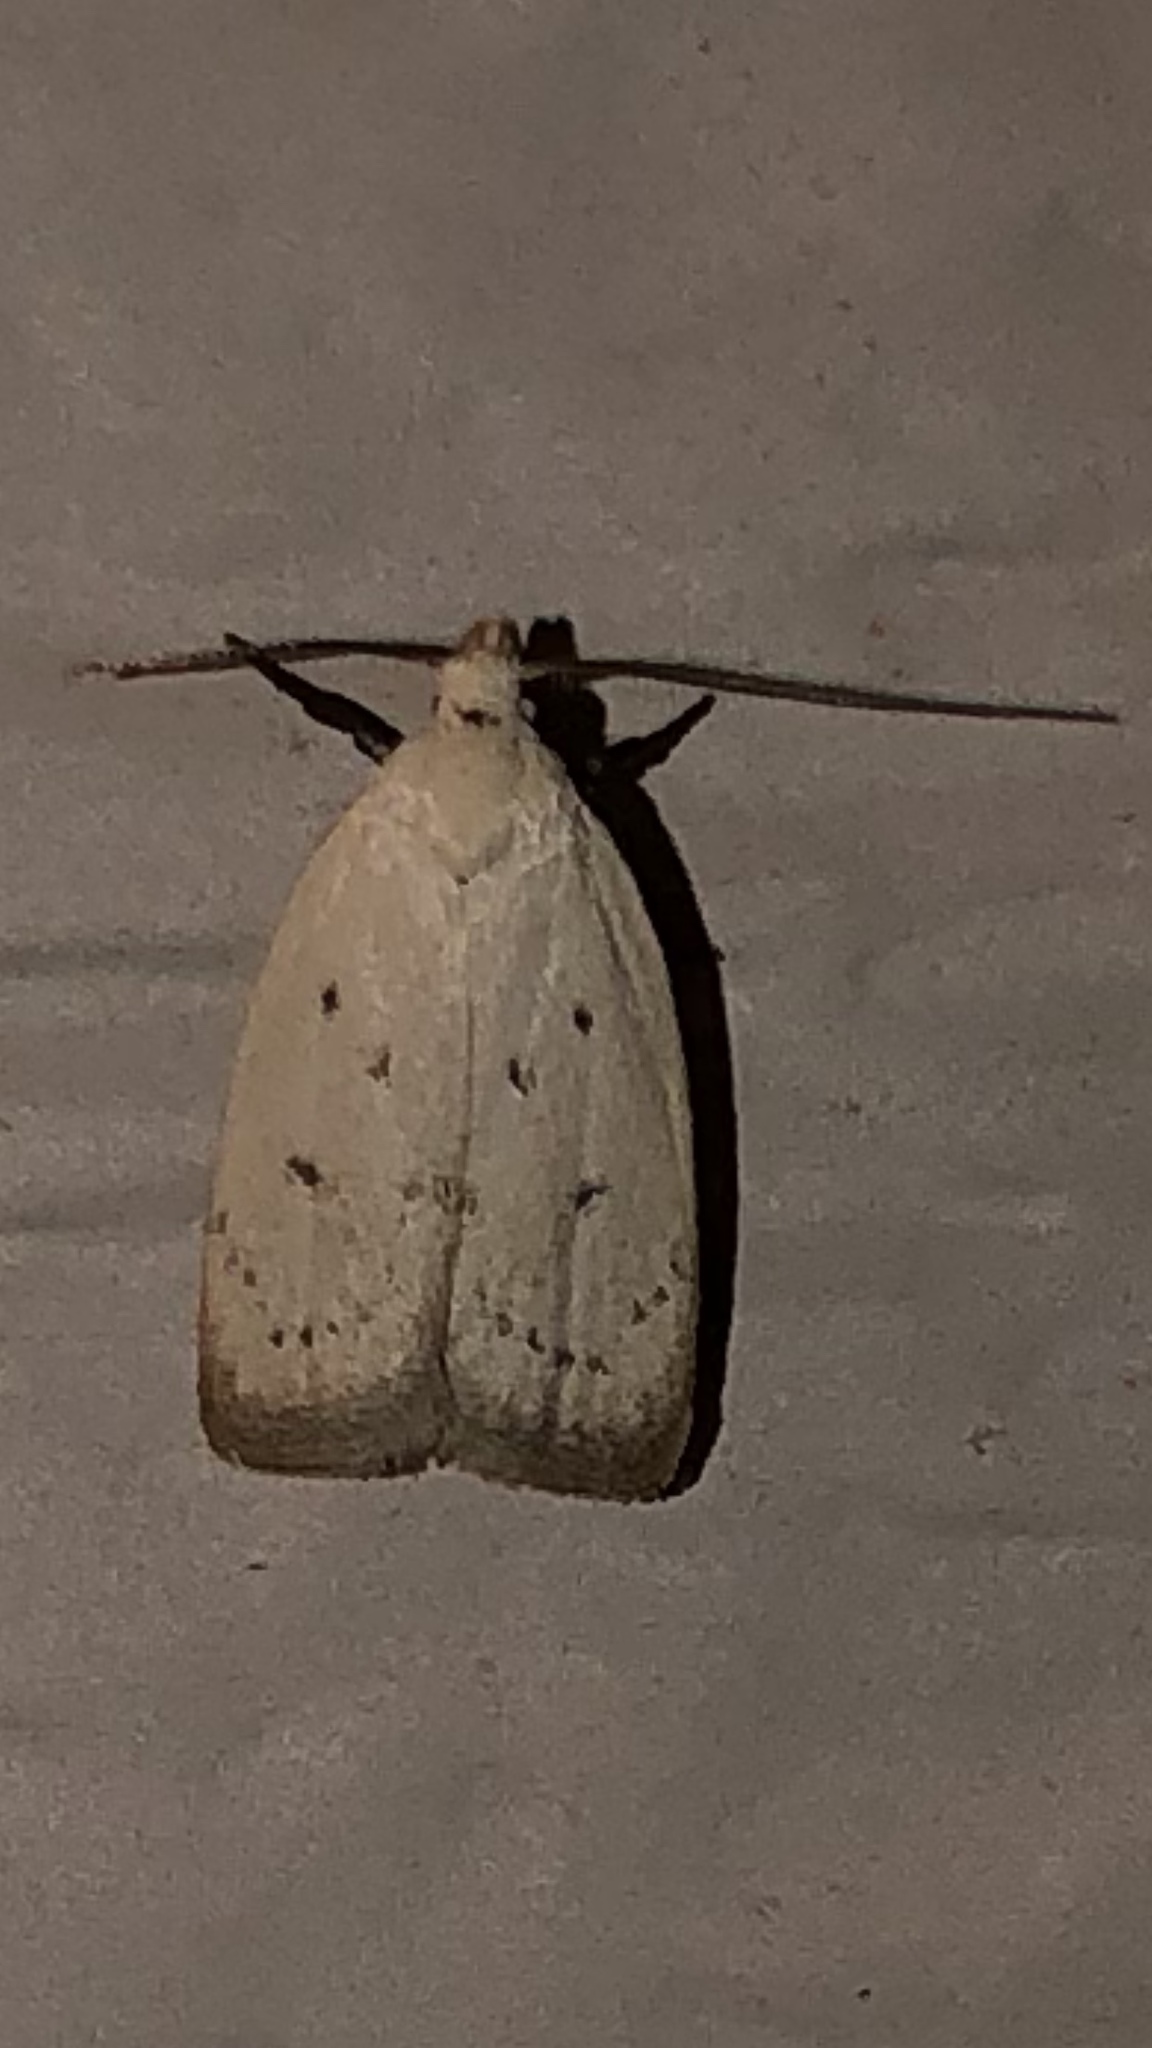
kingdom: Animalia
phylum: Arthropoda
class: Insecta
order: Lepidoptera
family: Oecophoridae
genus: Inga
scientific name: Inga cretacea
